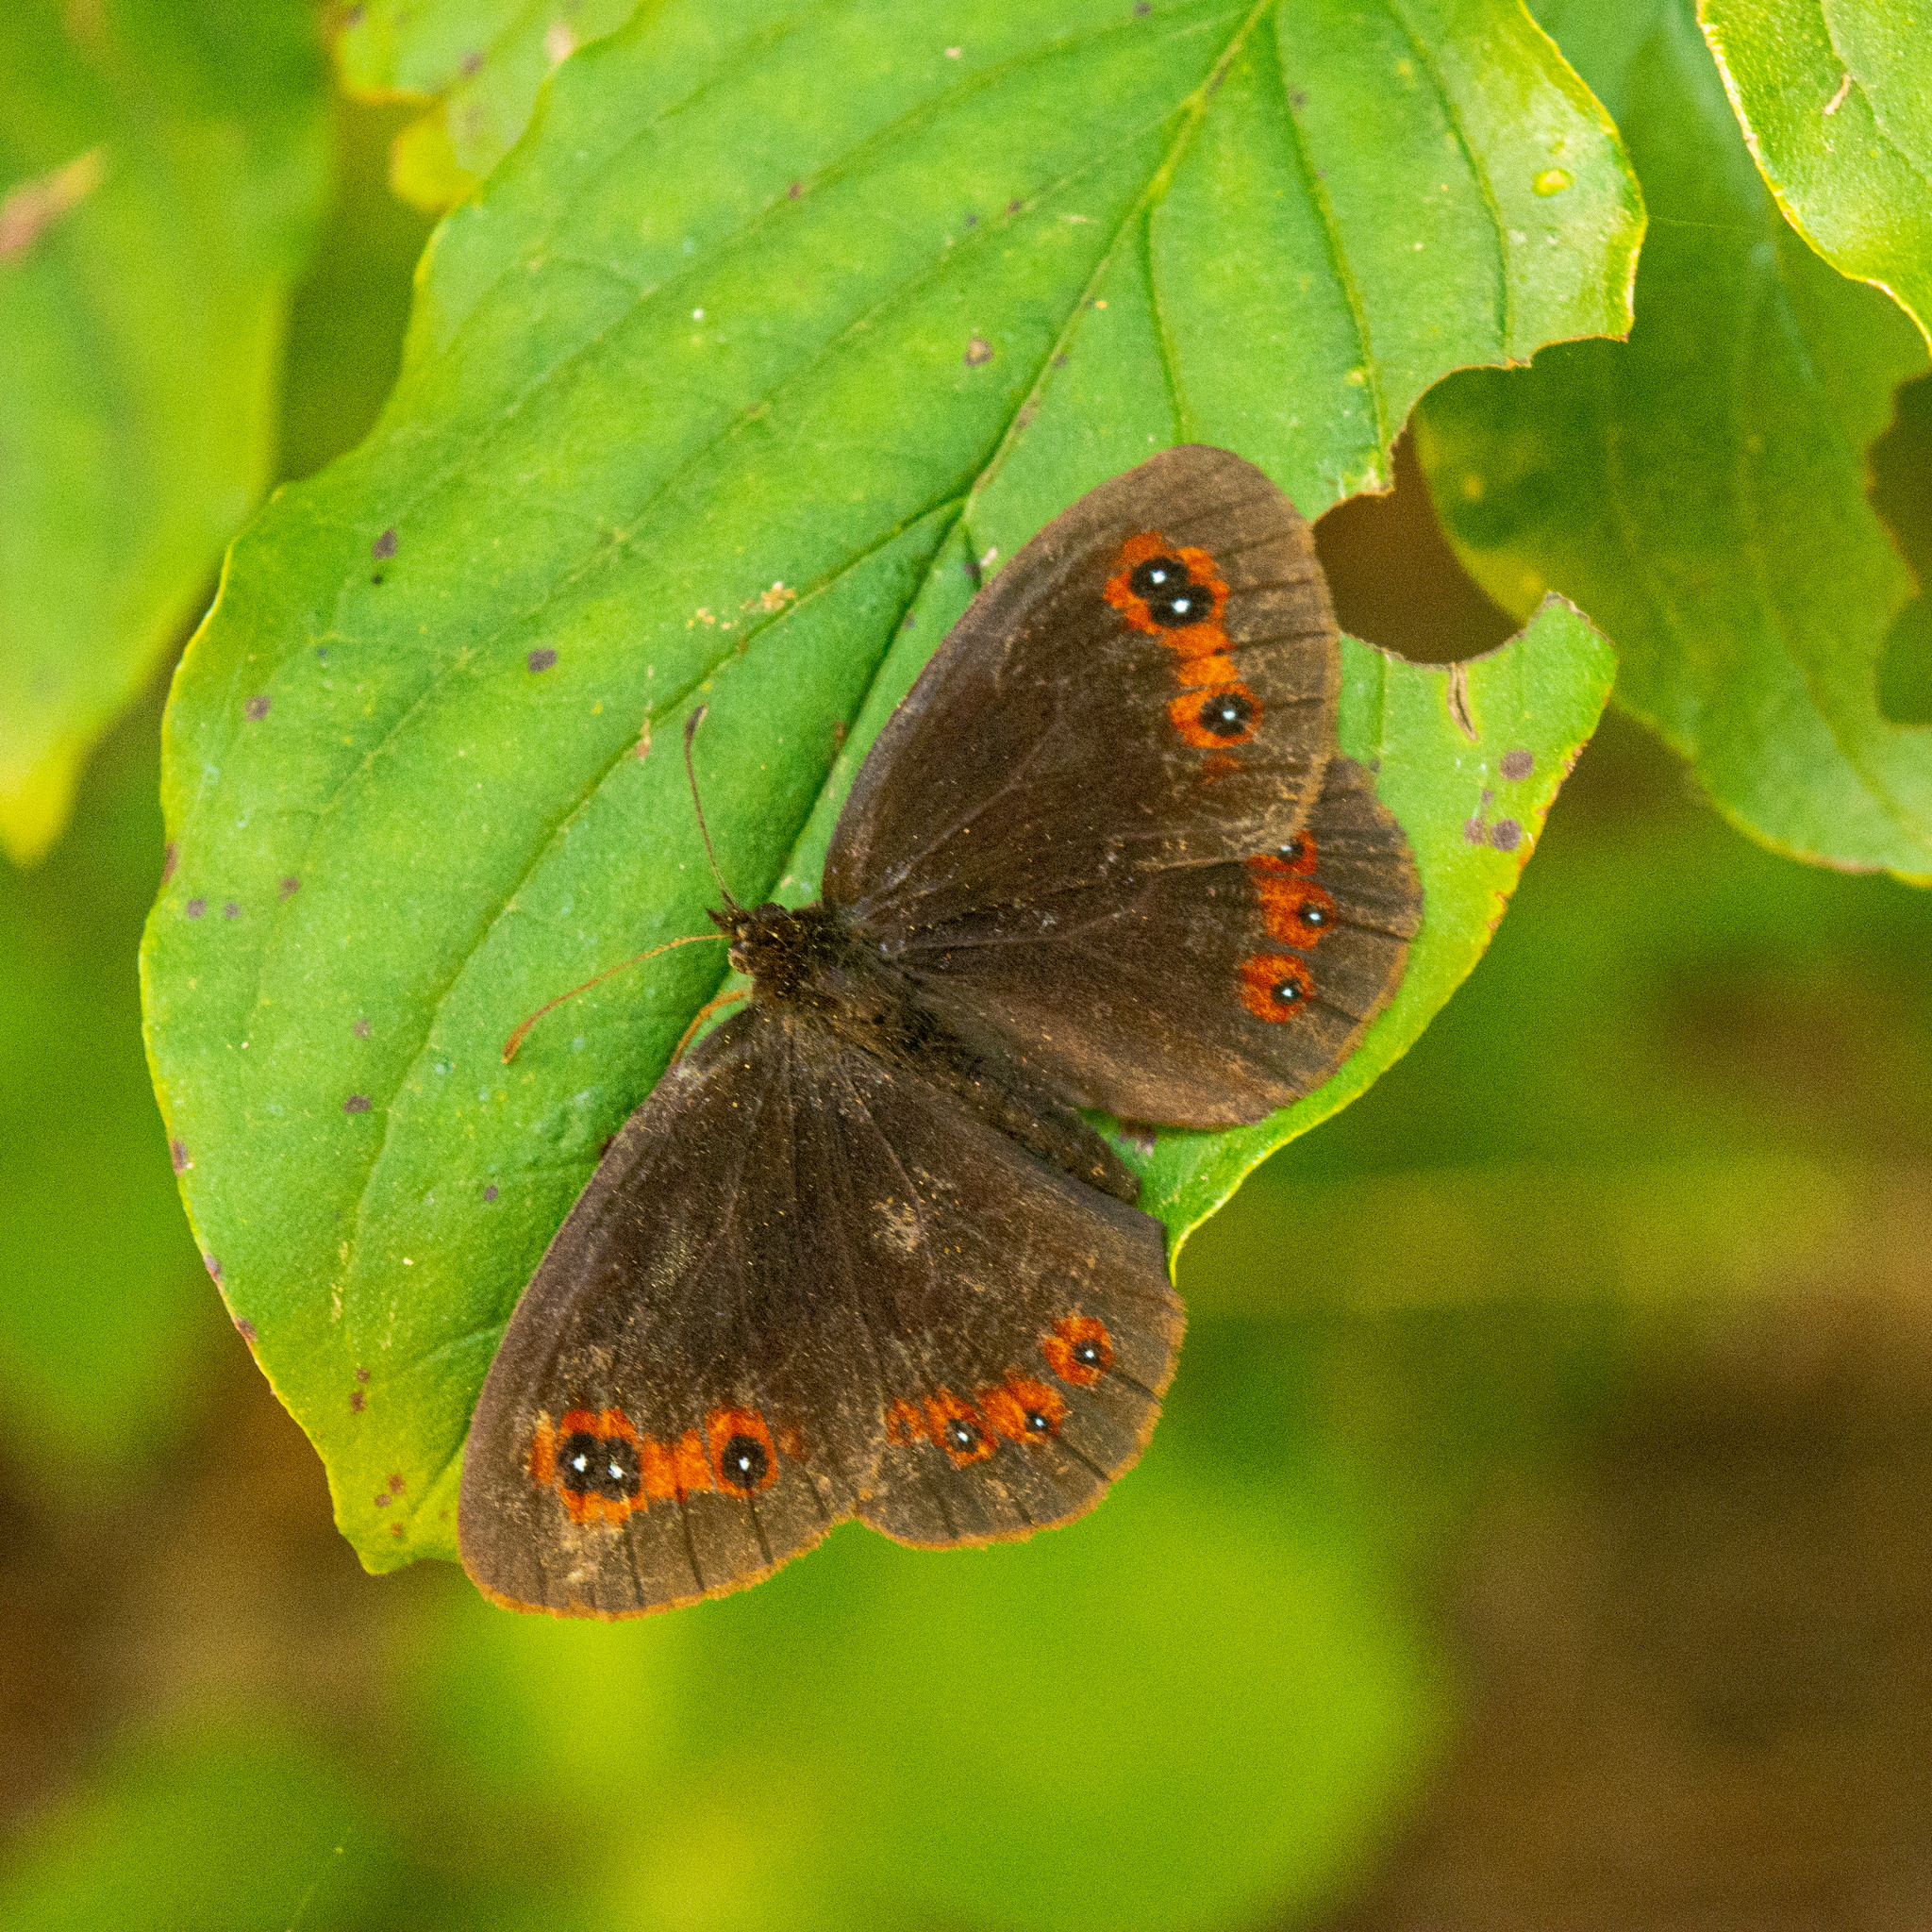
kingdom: Animalia
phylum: Arthropoda
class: Insecta
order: Lepidoptera
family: Nymphalidae
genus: Erebia
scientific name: Erebia aethiops
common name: Scotch argus
